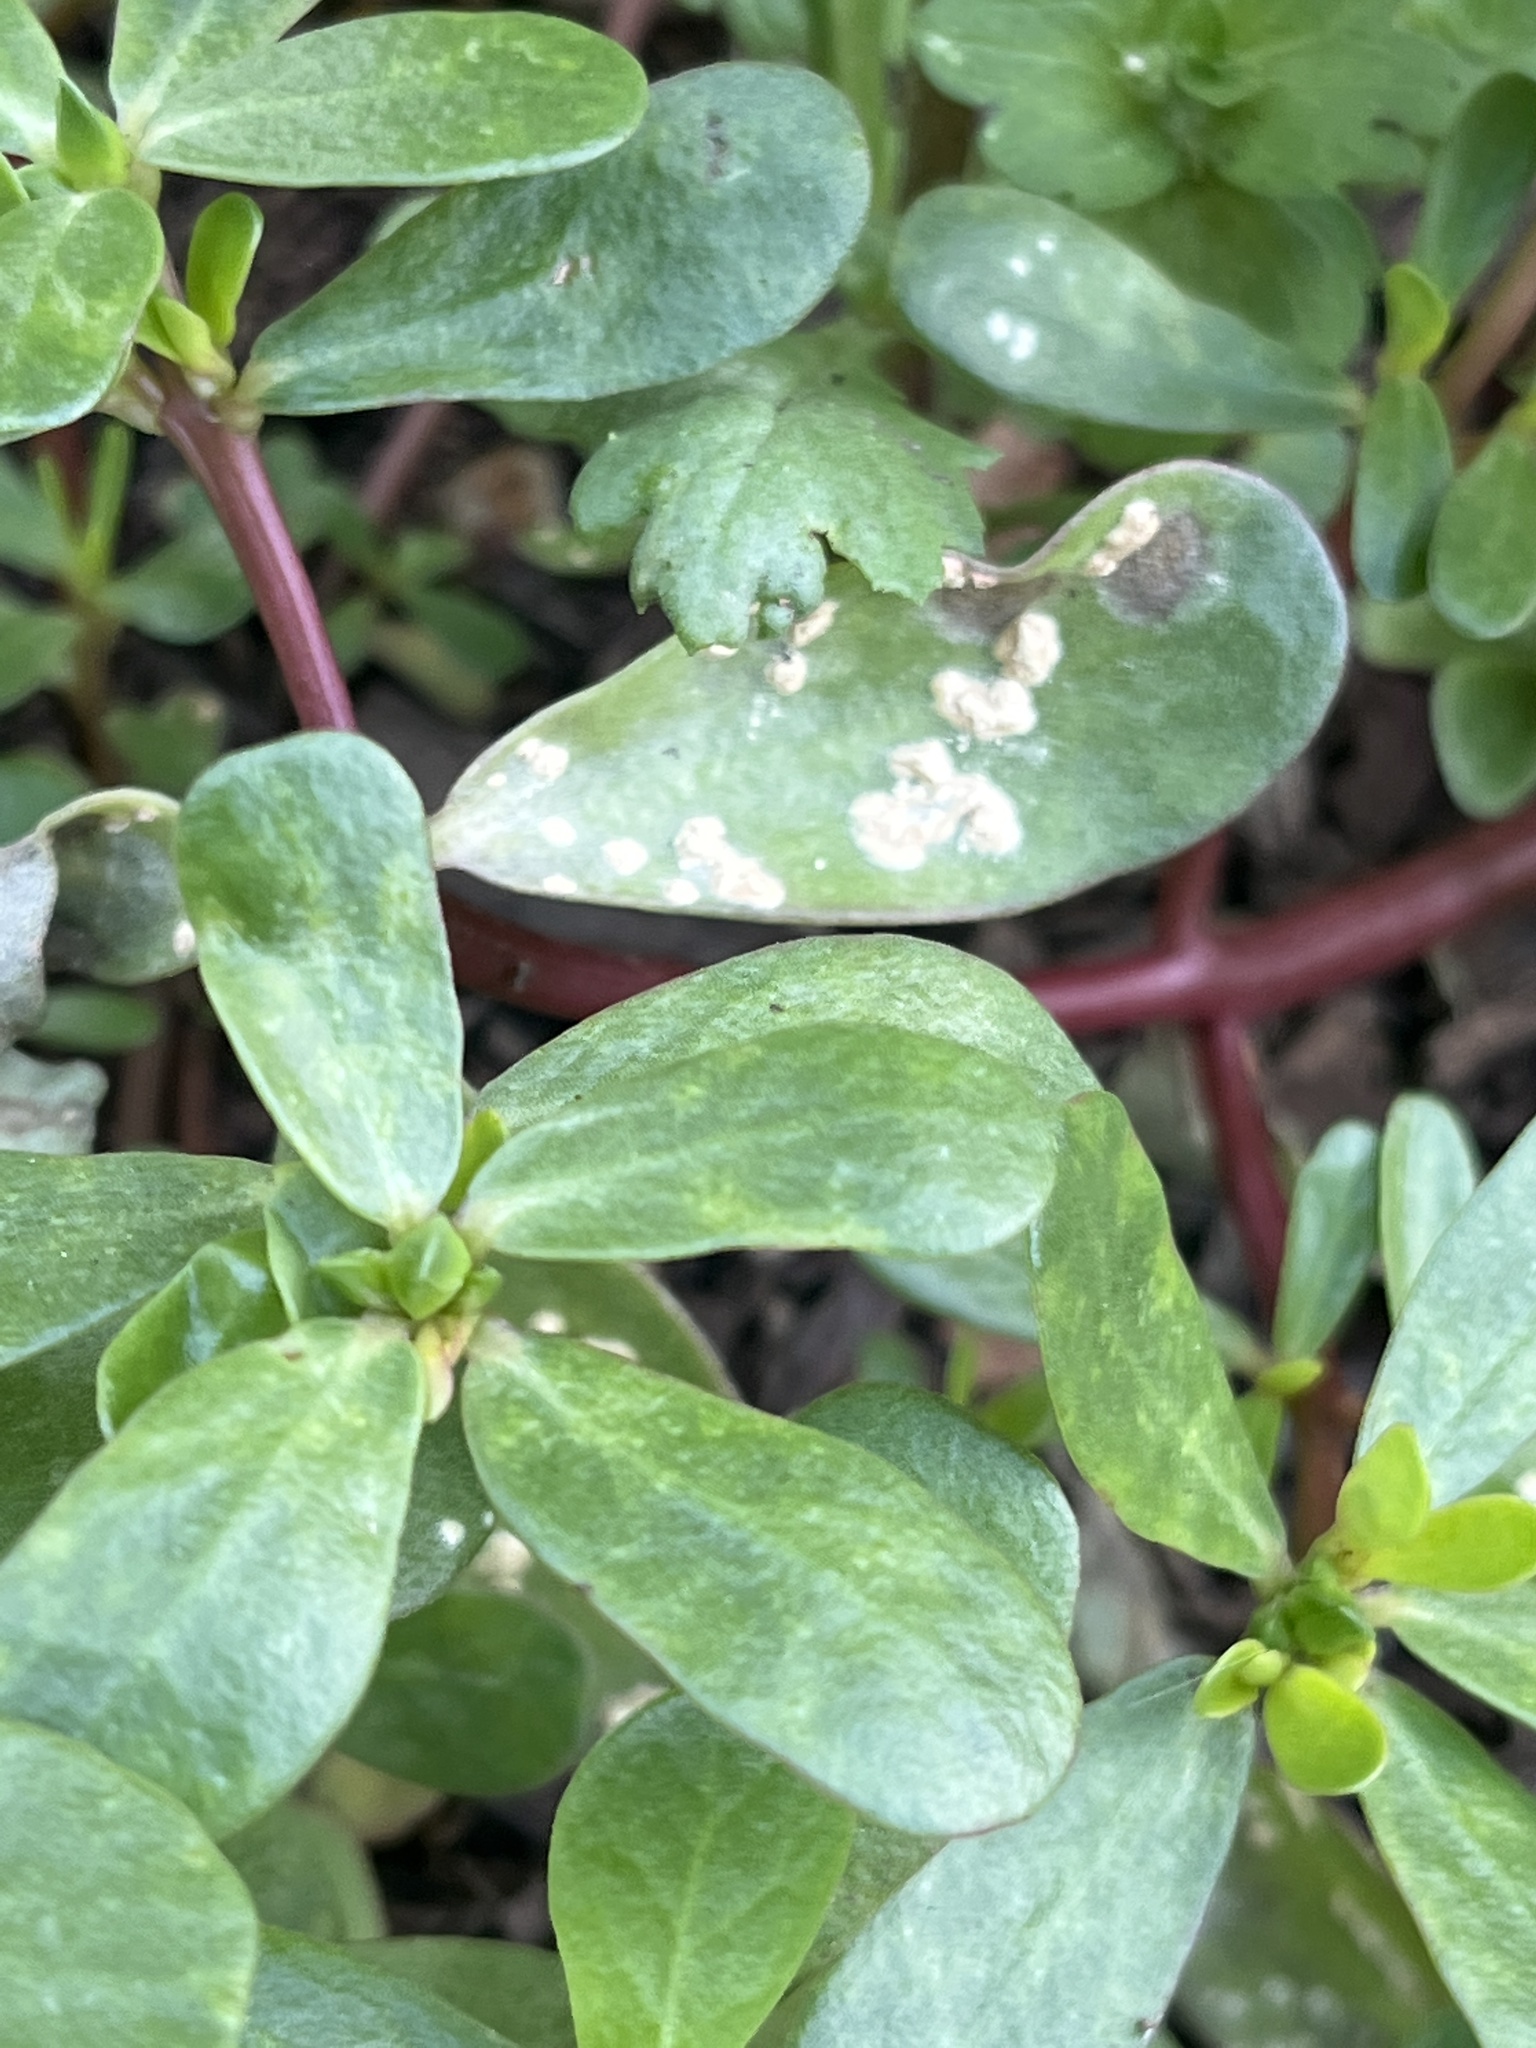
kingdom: Chromista
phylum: Oomycota
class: Peronosporea
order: Albuginales
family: Albuginaceae
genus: Wilsoniana
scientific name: Wilsoniana portulacae
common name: Purslane white rust
